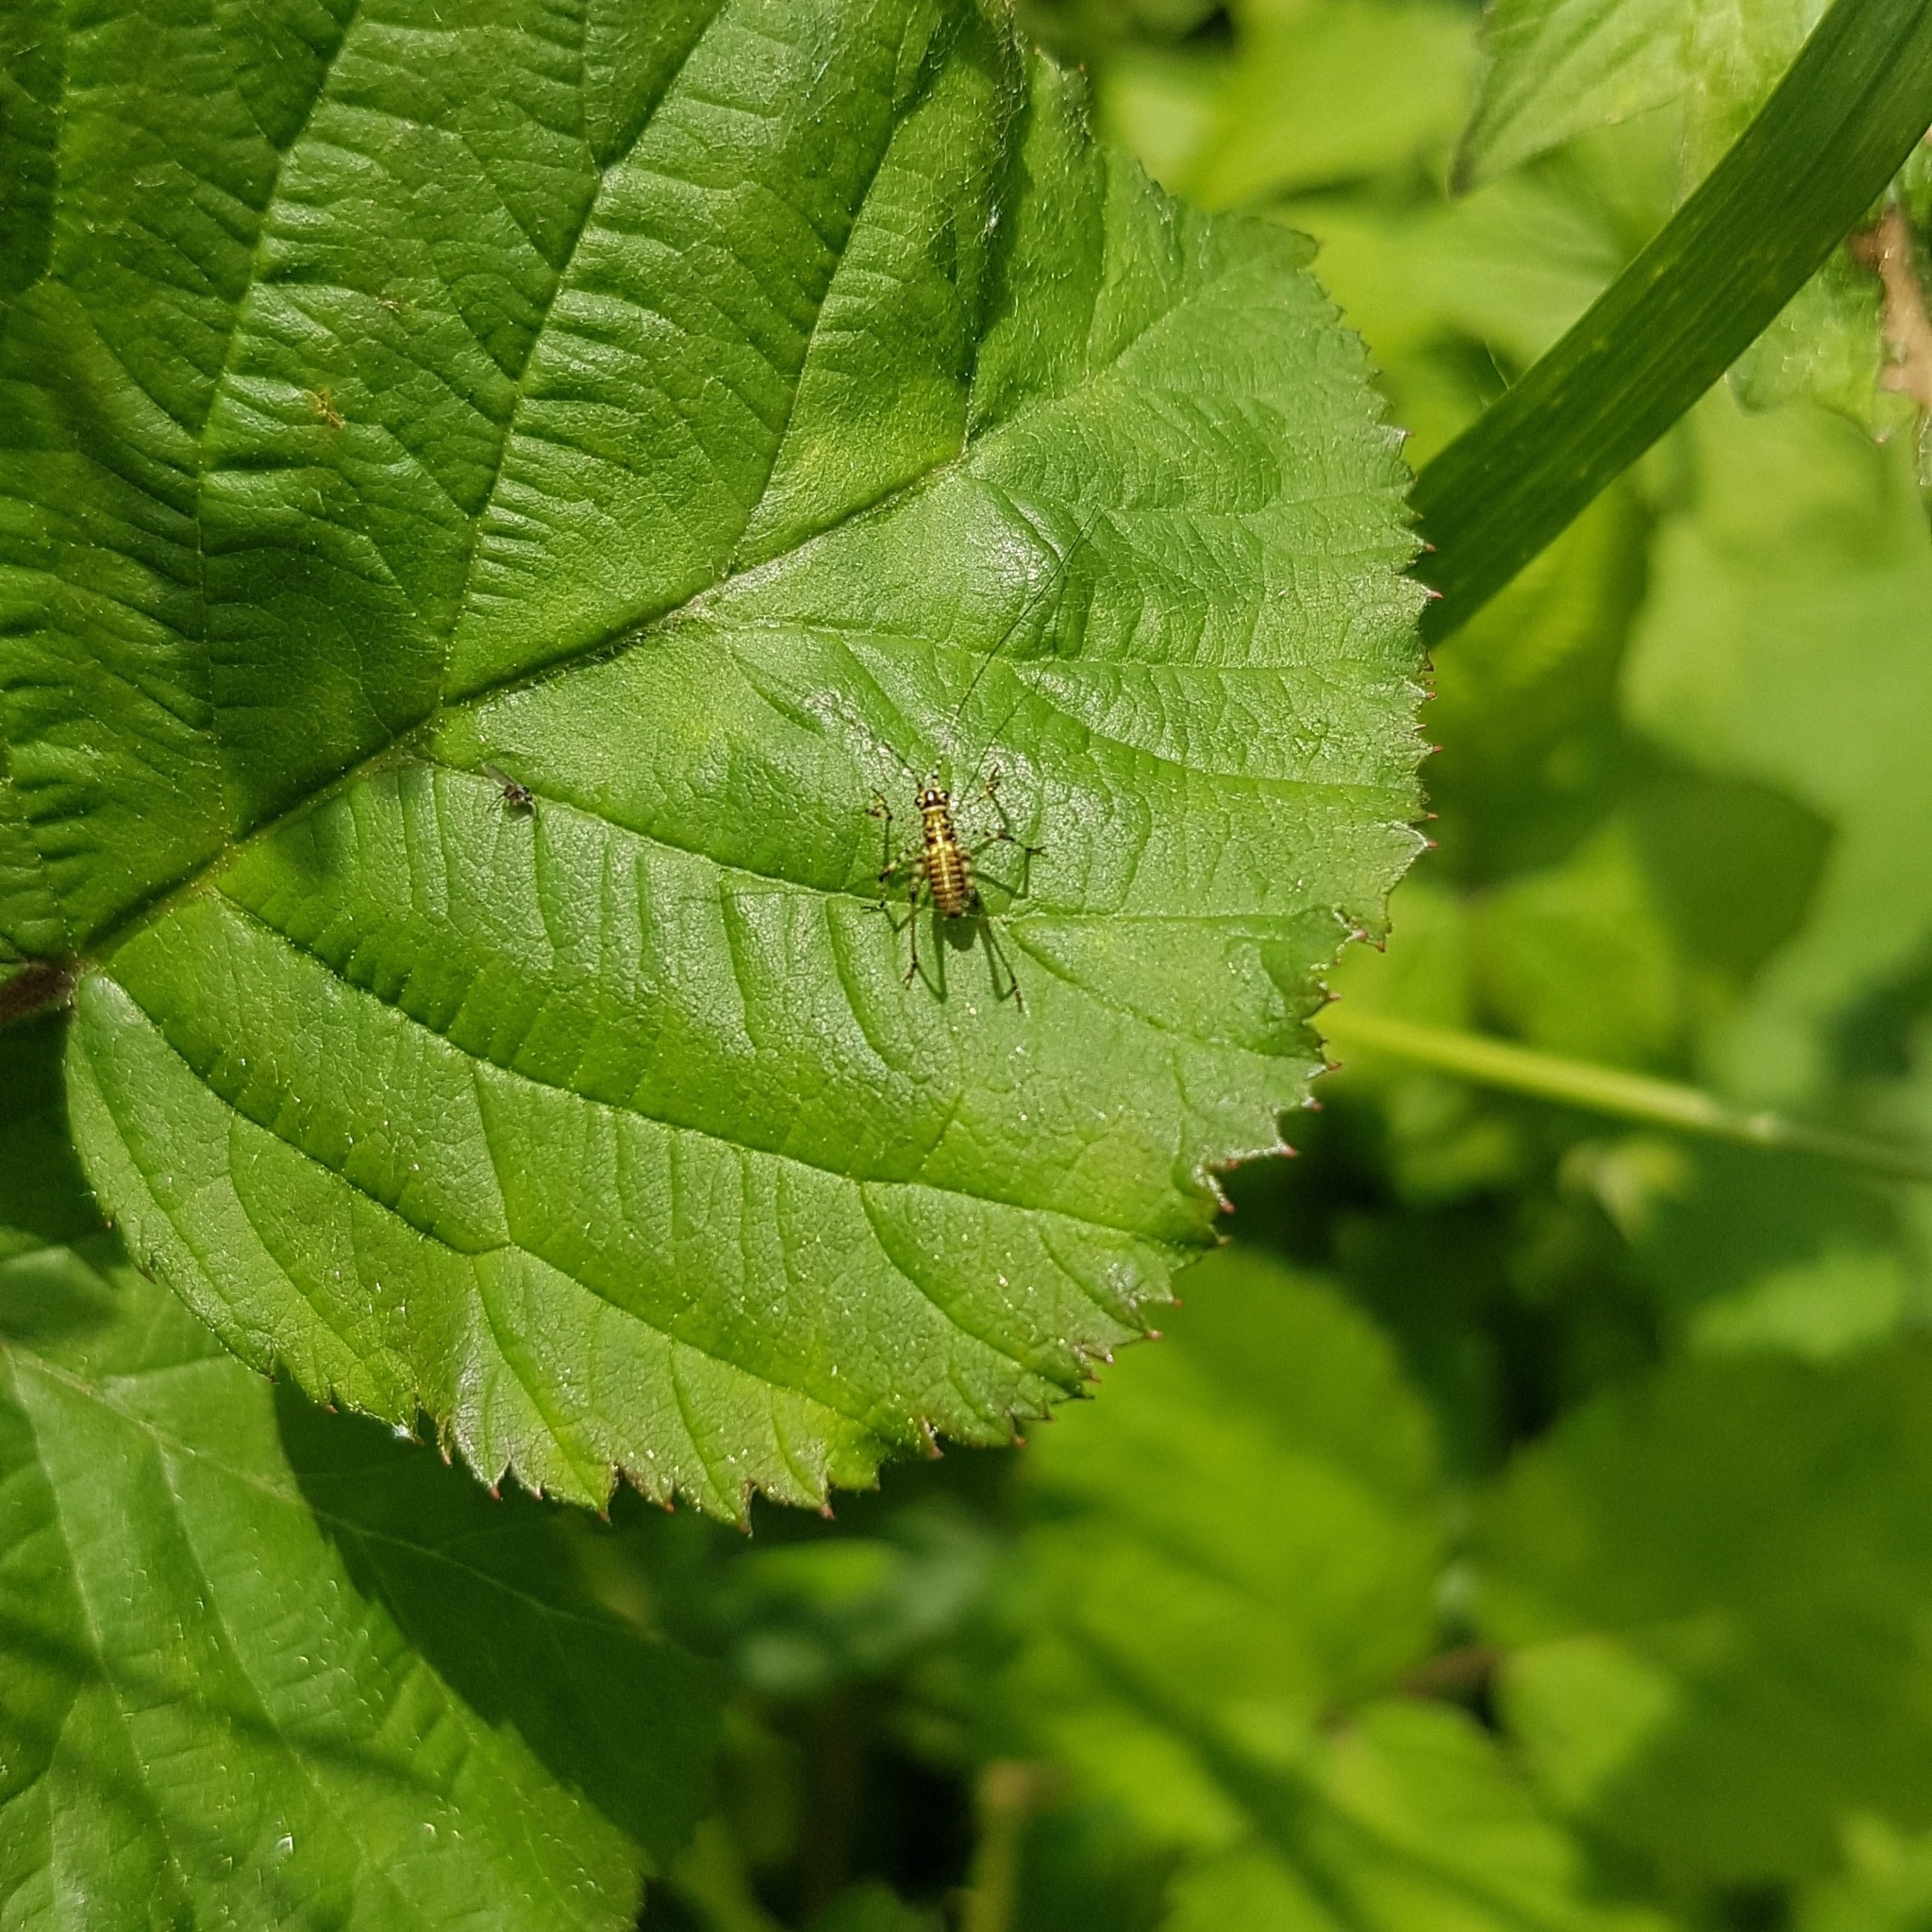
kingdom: Animalia
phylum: Arthropoda
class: Insecta
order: Orthoptera
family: Tettigoniidae
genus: Phaneroptera
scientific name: Phaneroptera nana
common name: Southern sickle bush-cricket
